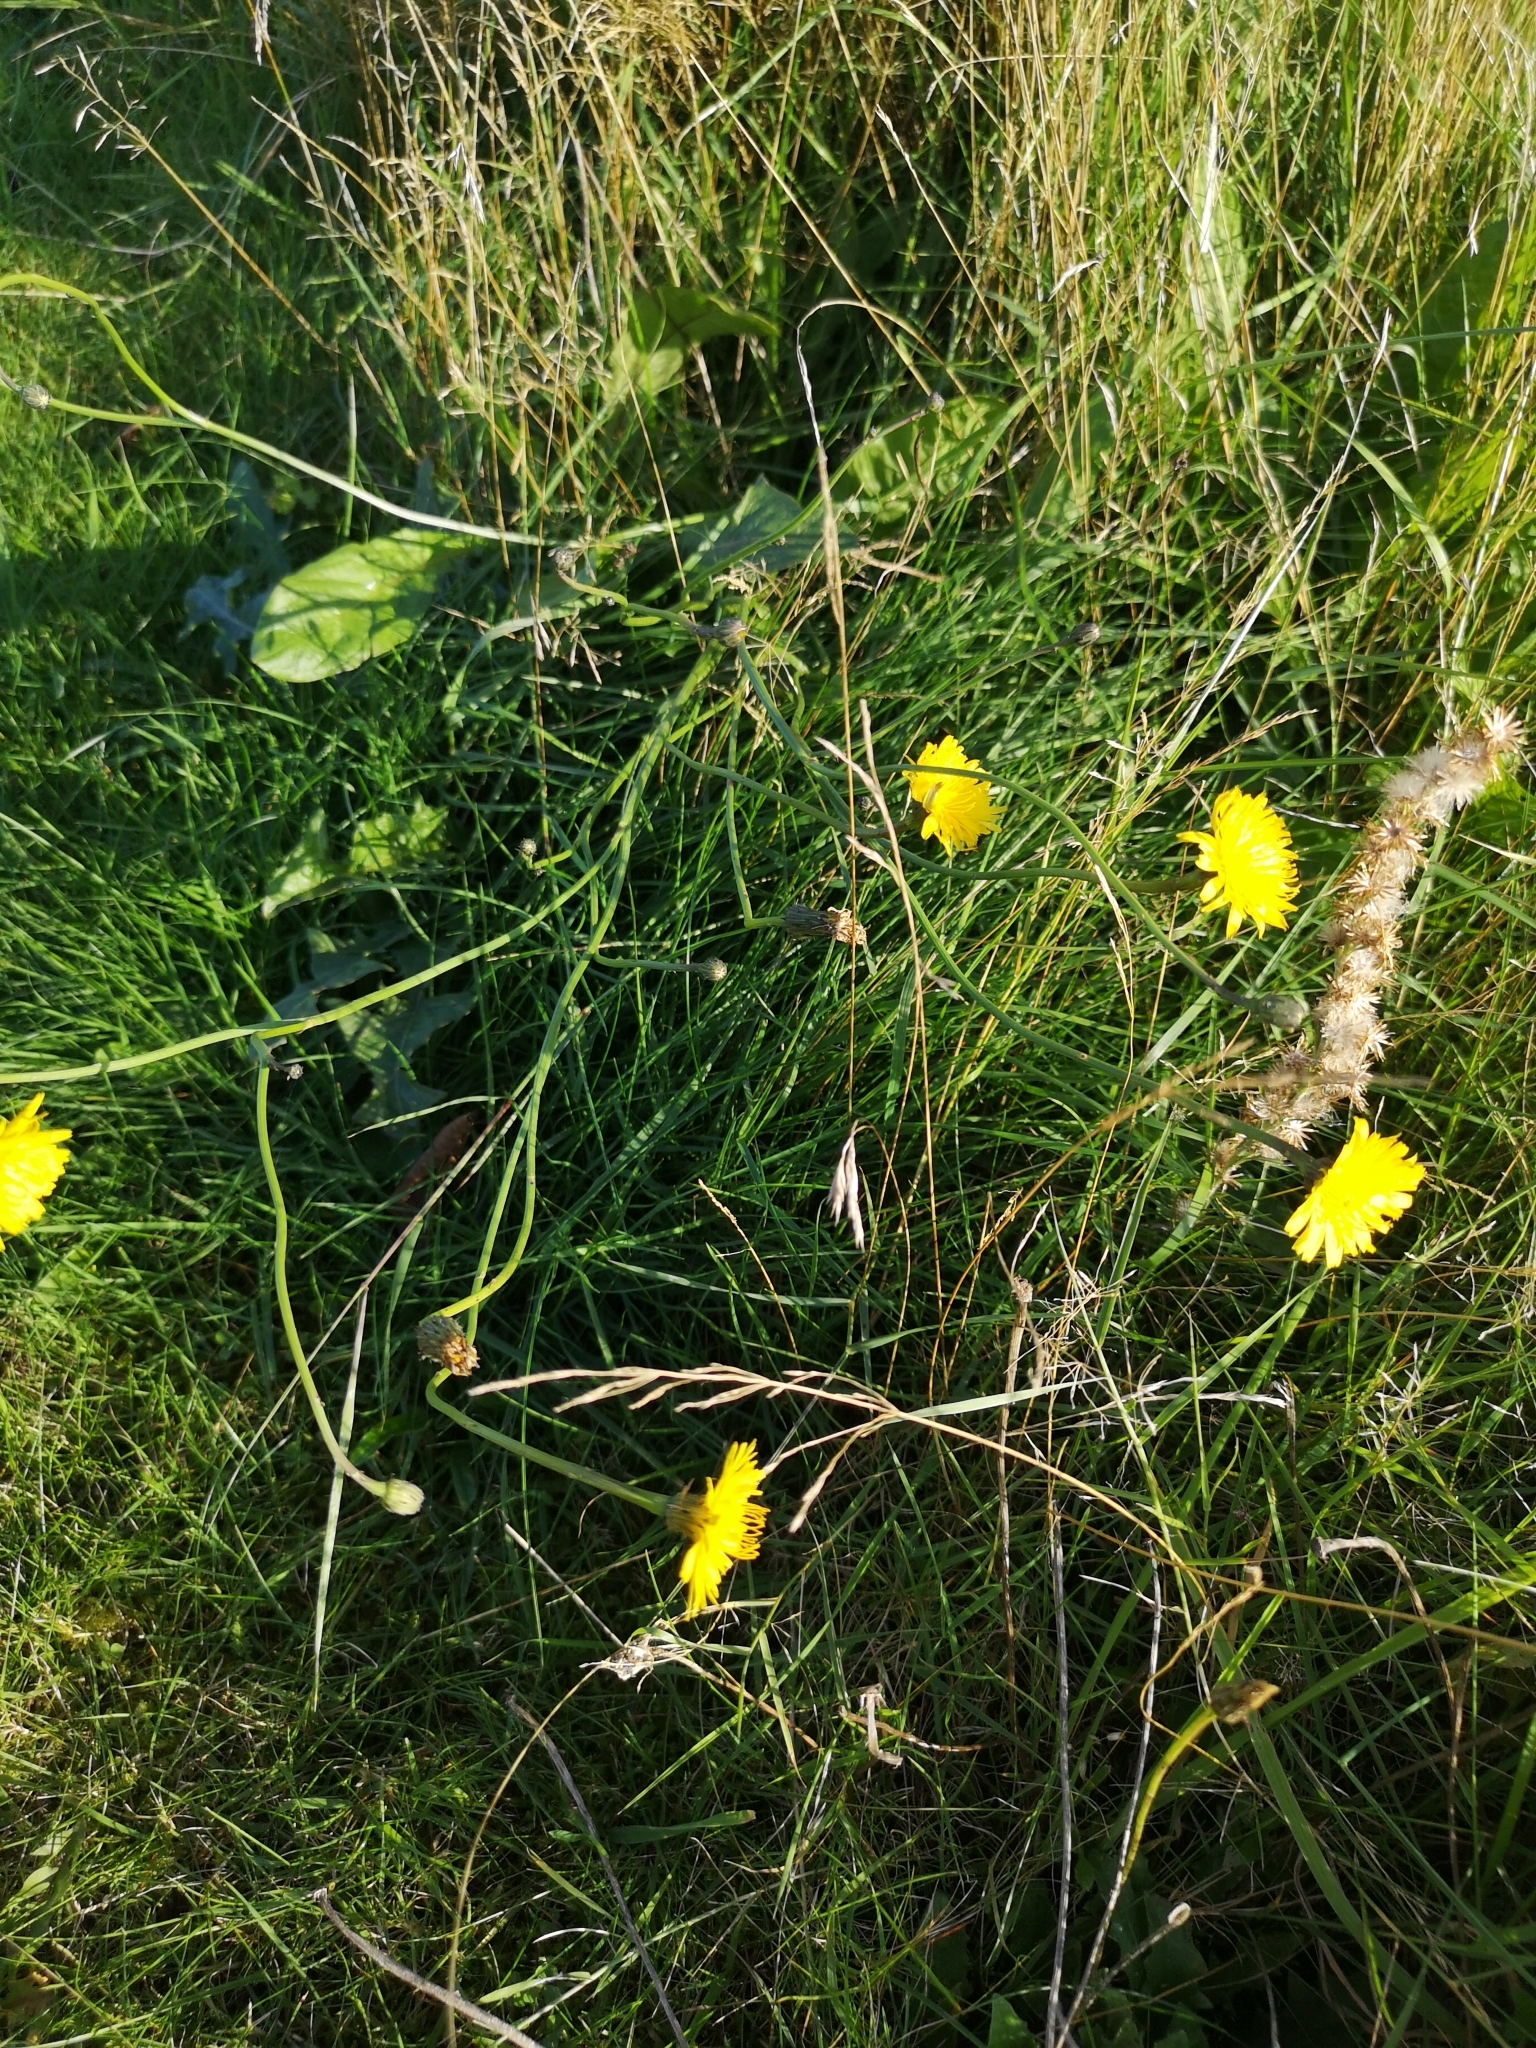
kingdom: Plantae
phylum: Tracheophyta
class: Magnoliopsida
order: Asterales
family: Asteraceae
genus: Scorzoneroides
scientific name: Scorzoneroides autumnalis
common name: Autumn hawkbit
